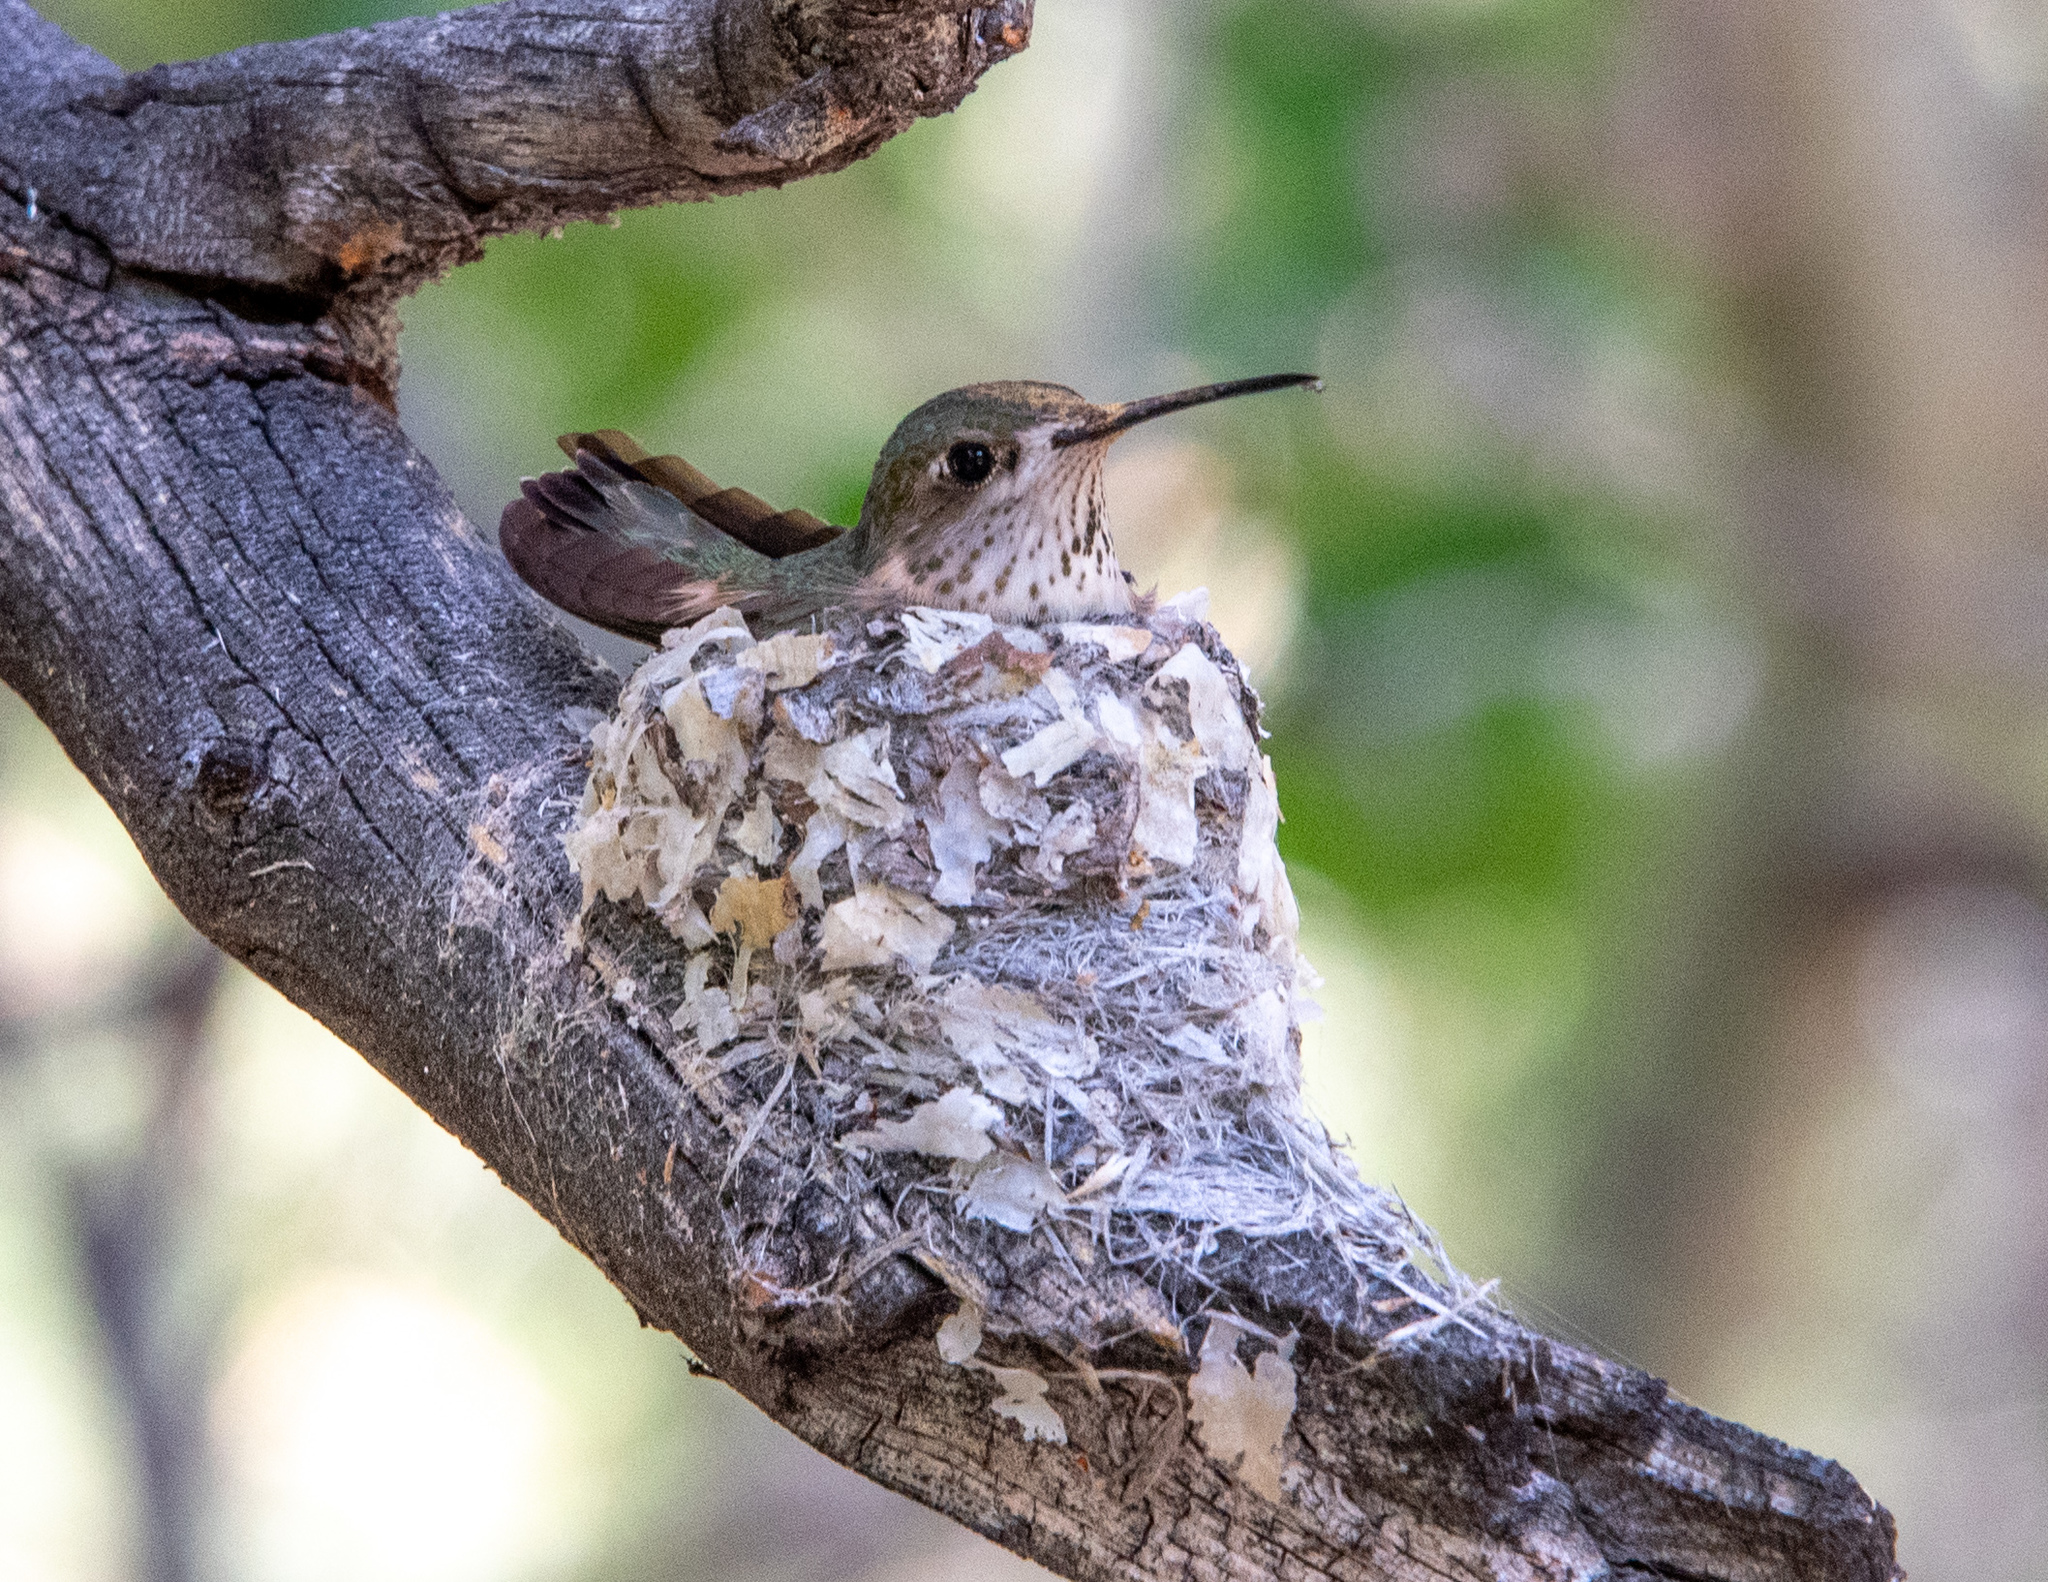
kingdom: Animalia
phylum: Chordata
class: Aves
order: Apodiformes
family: Trochilidae
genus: Selasphorus
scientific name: Selasphorus calliope
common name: Calliope hummingbird
